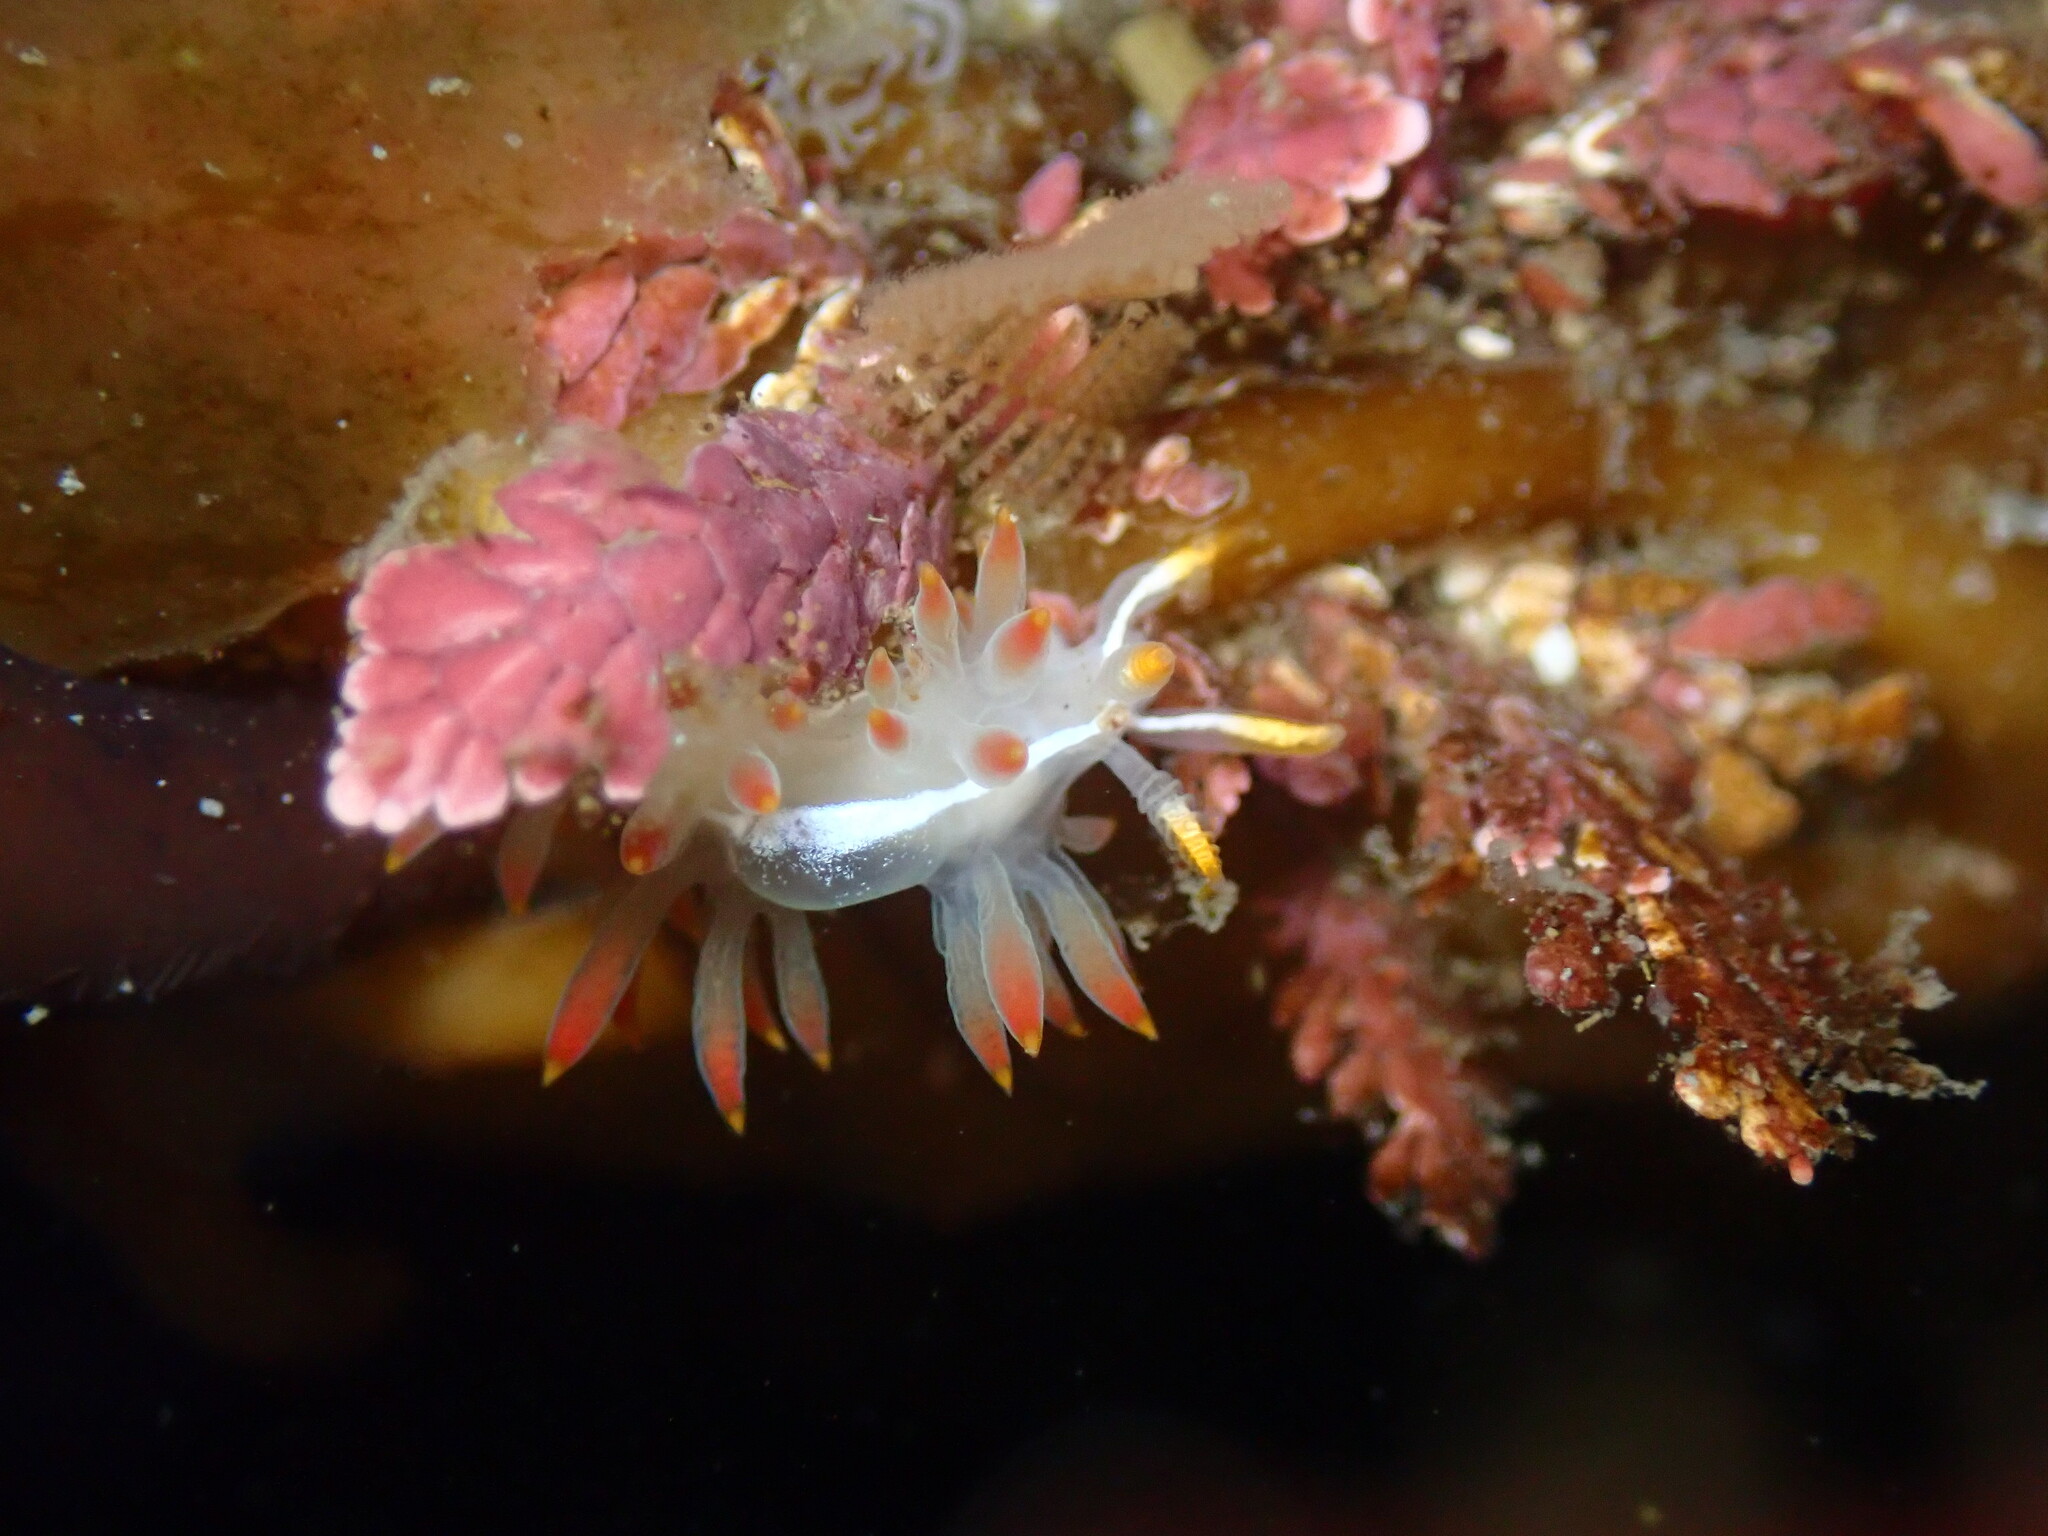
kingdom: Animalia
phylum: Mollusca
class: Gastropoda
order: Nudibranchia
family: Coryphellidae
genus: Coryphella
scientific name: Coryphella trilineata
